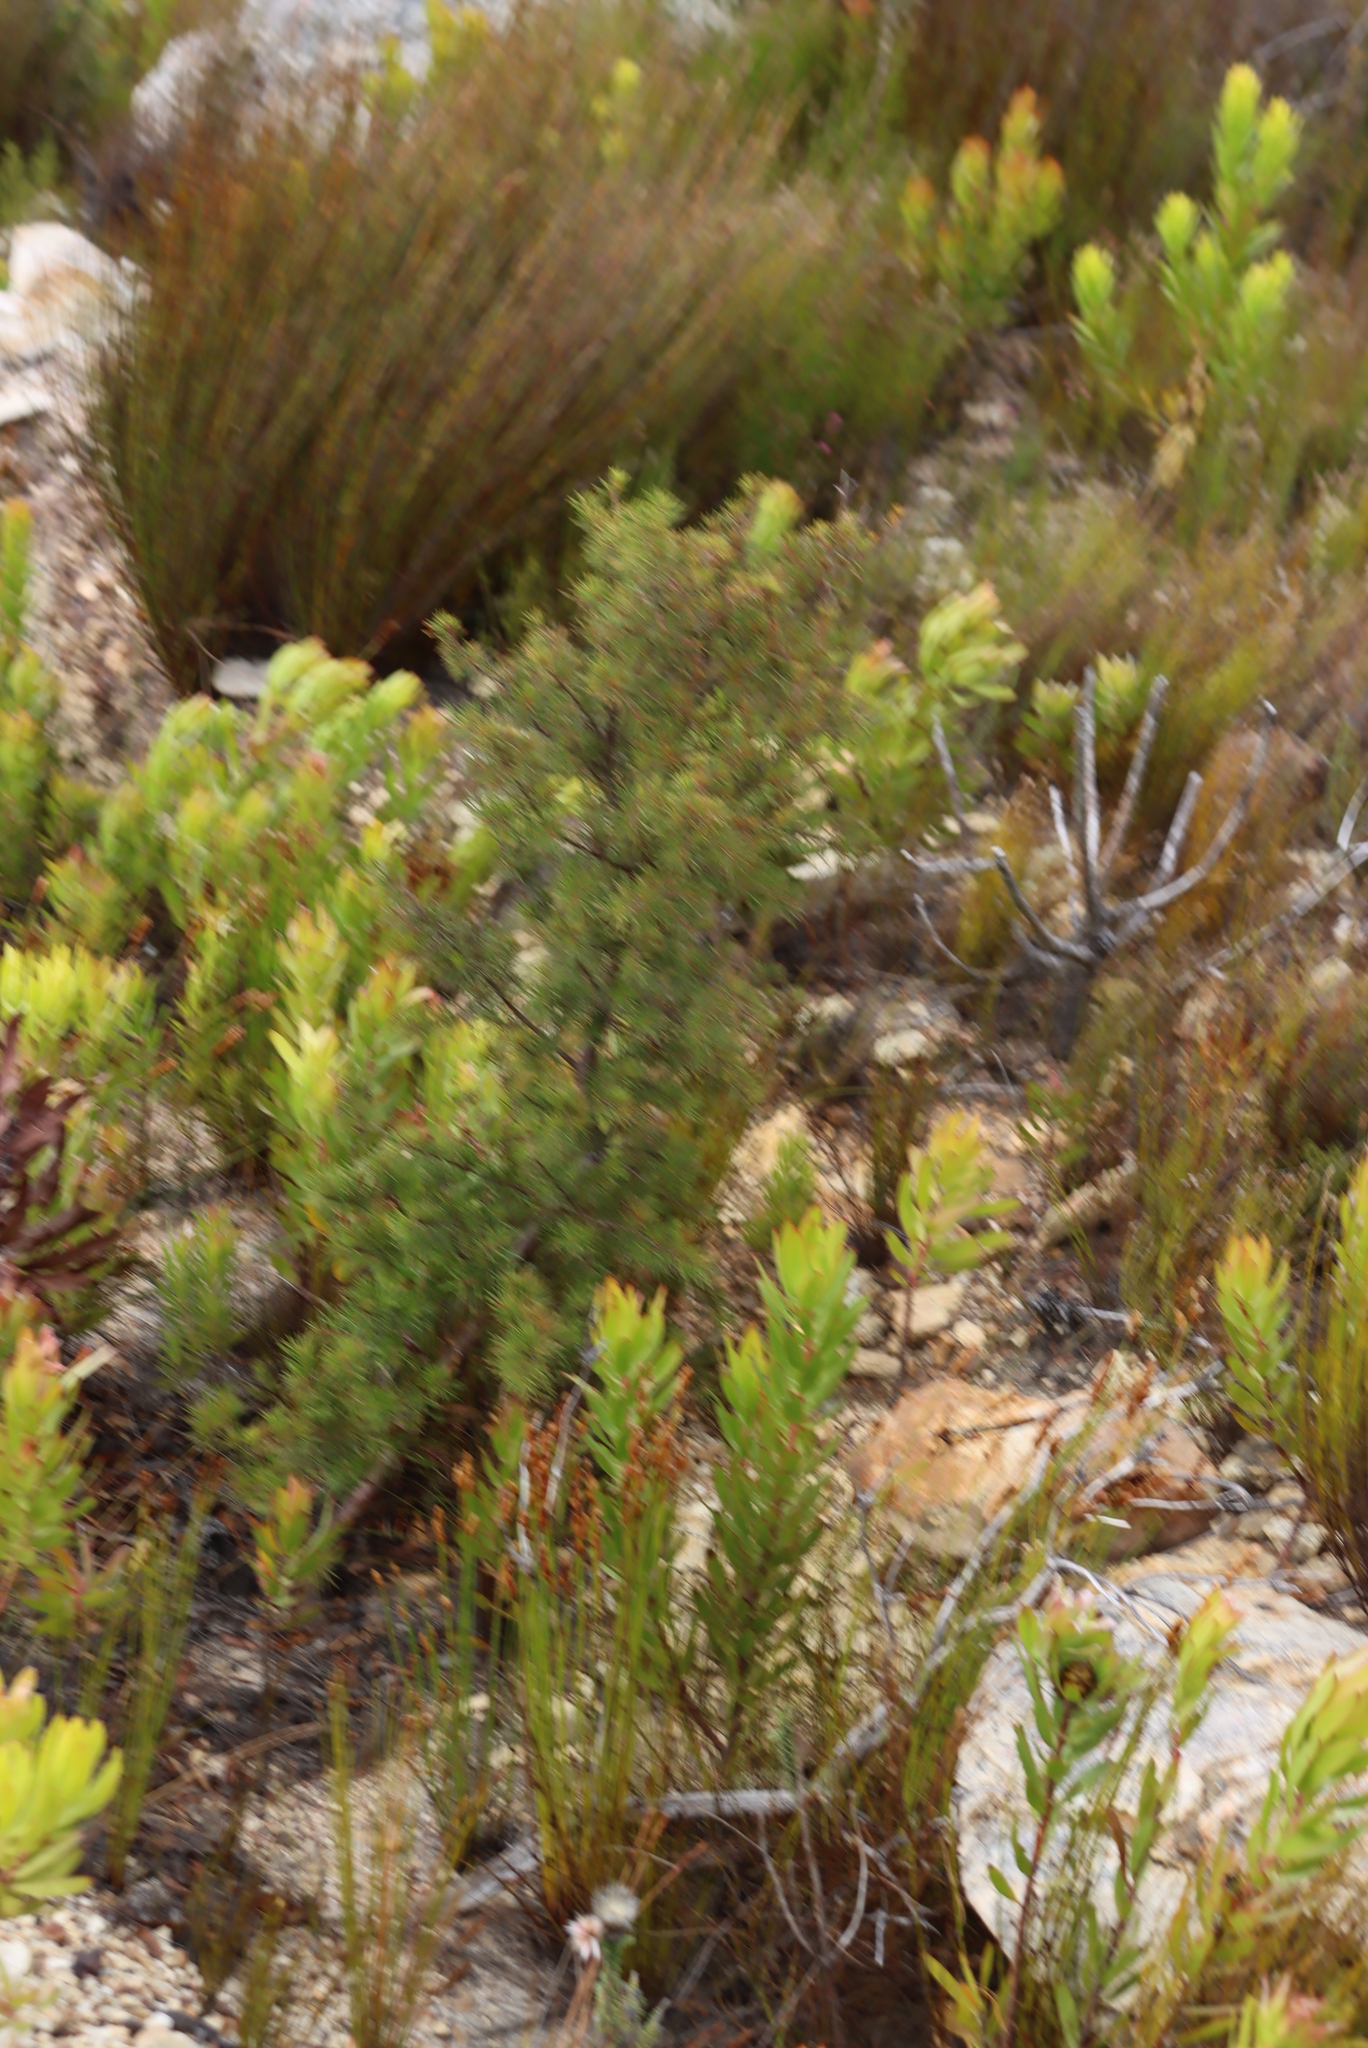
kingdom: Plantae
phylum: Tracheophyta
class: Magnoliopsida
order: Proteales
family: Proteaceae
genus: Hakea
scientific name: Hakea sericea
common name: Needle bush
